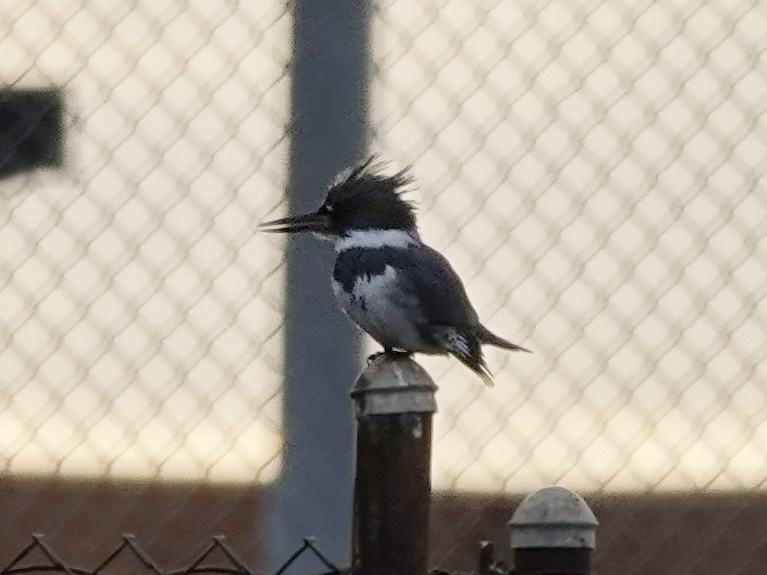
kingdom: Animalia
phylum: Chordata
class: Aves
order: Coraciiformes
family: Alcedinidae
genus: Megaceryle
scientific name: Megaceryle alcyon
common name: Belted kingfisher
